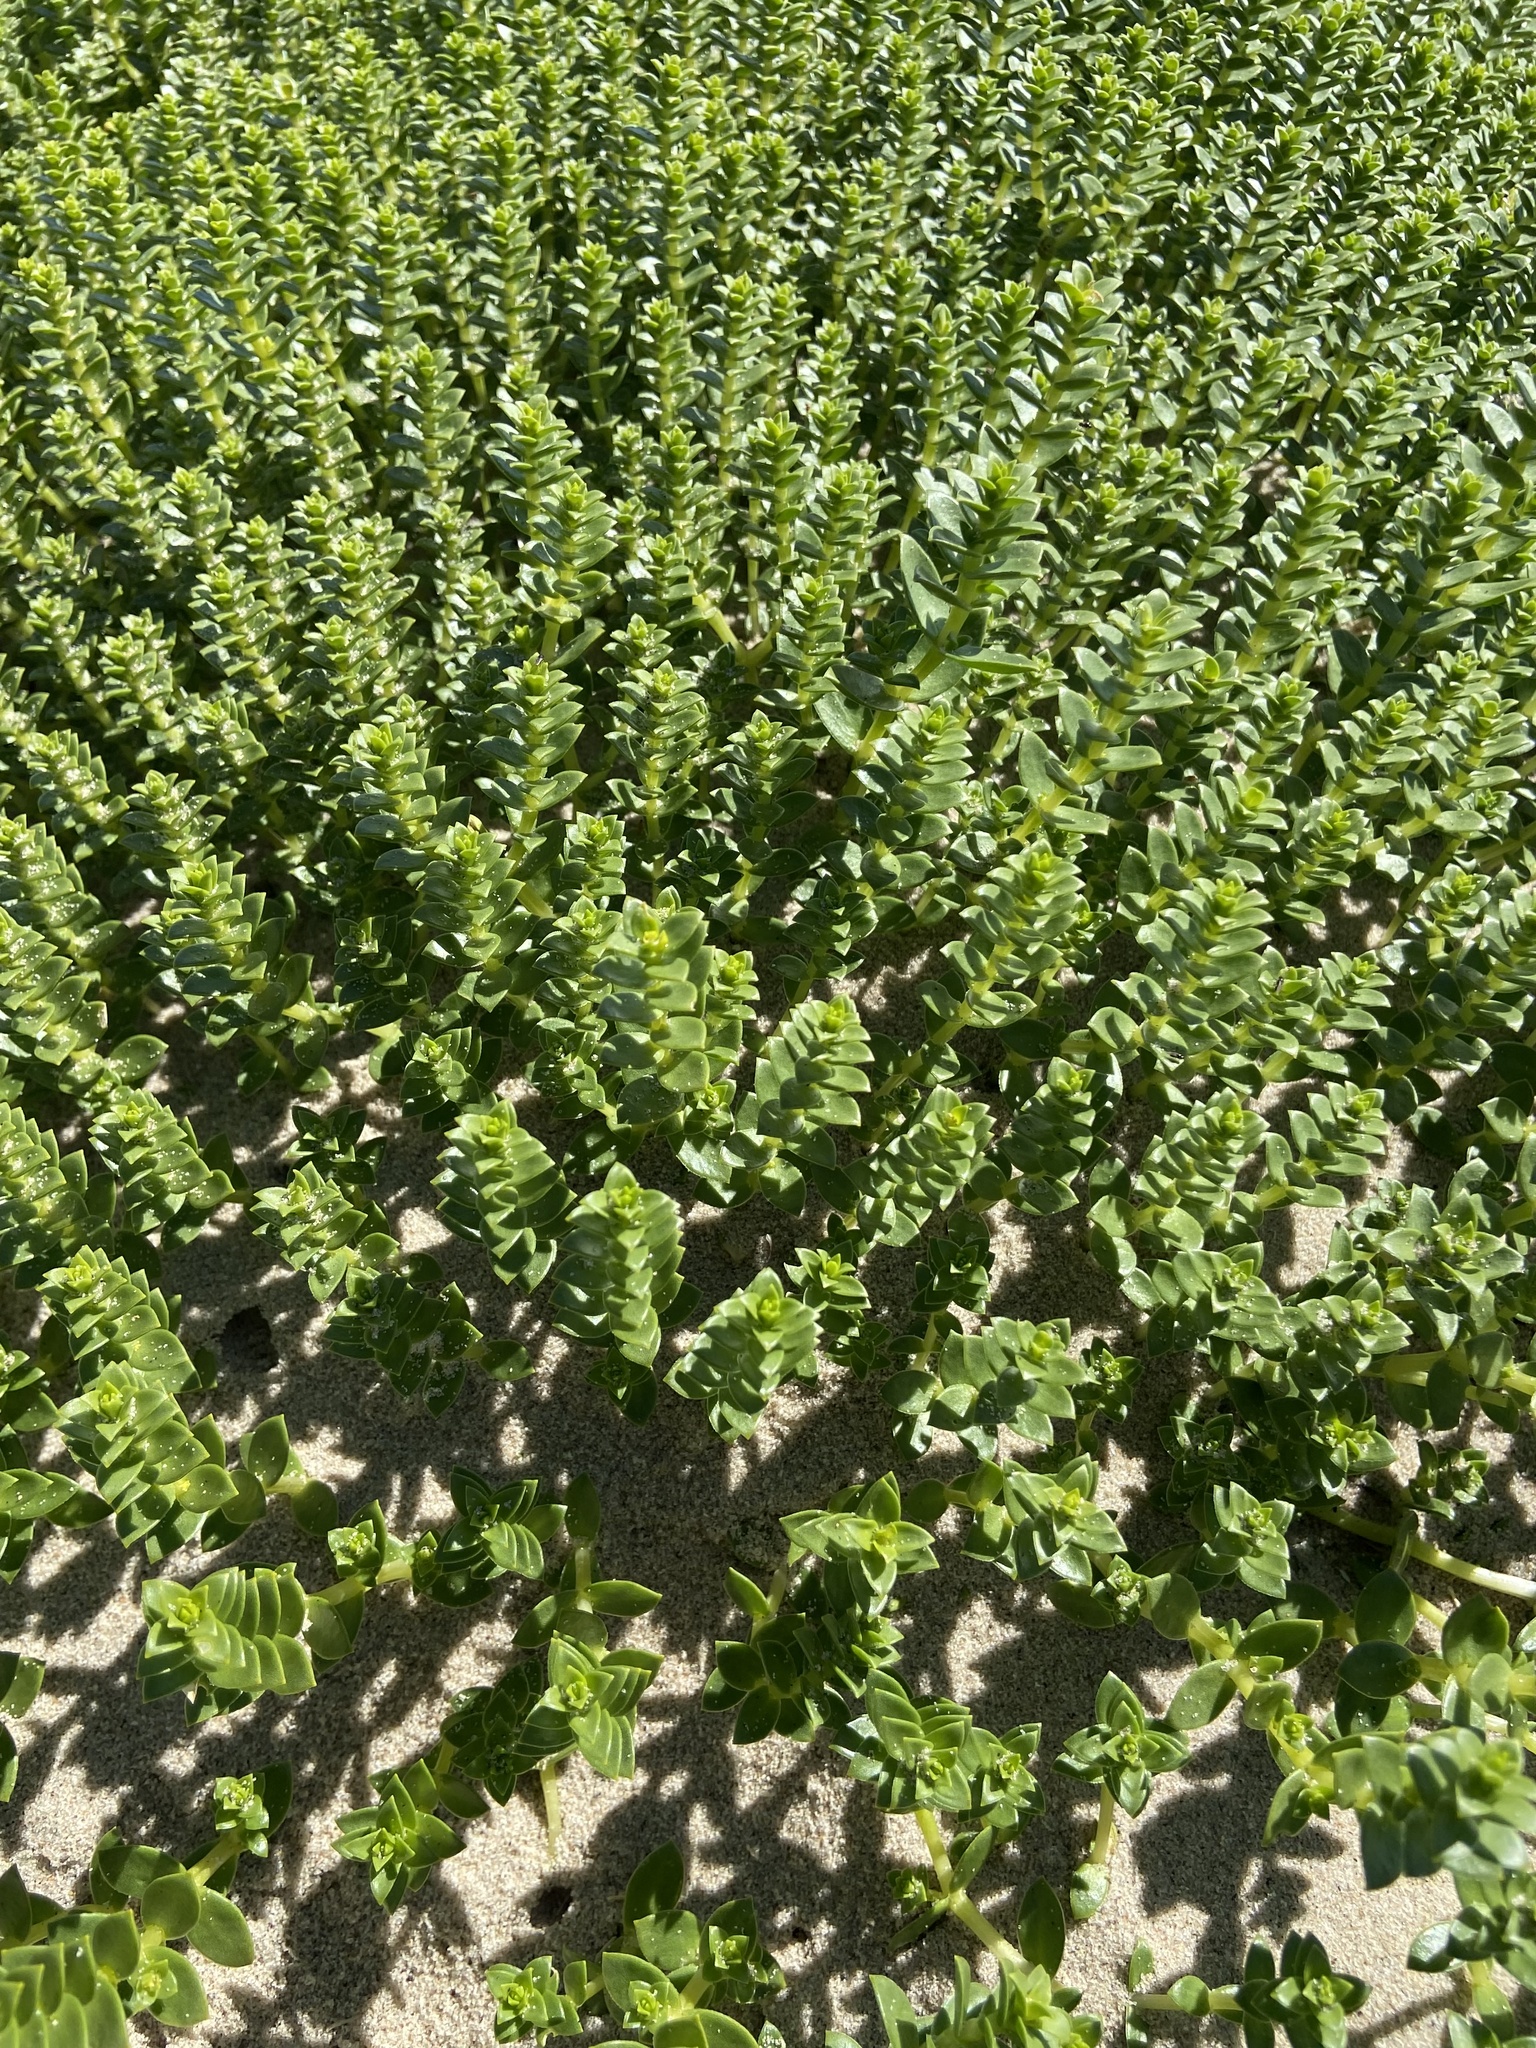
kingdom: Plantae
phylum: Tracheophyta
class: Magnoliopsida
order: Caryophyllales
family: Caryophyllaceae
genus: Honckenya
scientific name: Honckenya peploides
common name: Sea sandwort
